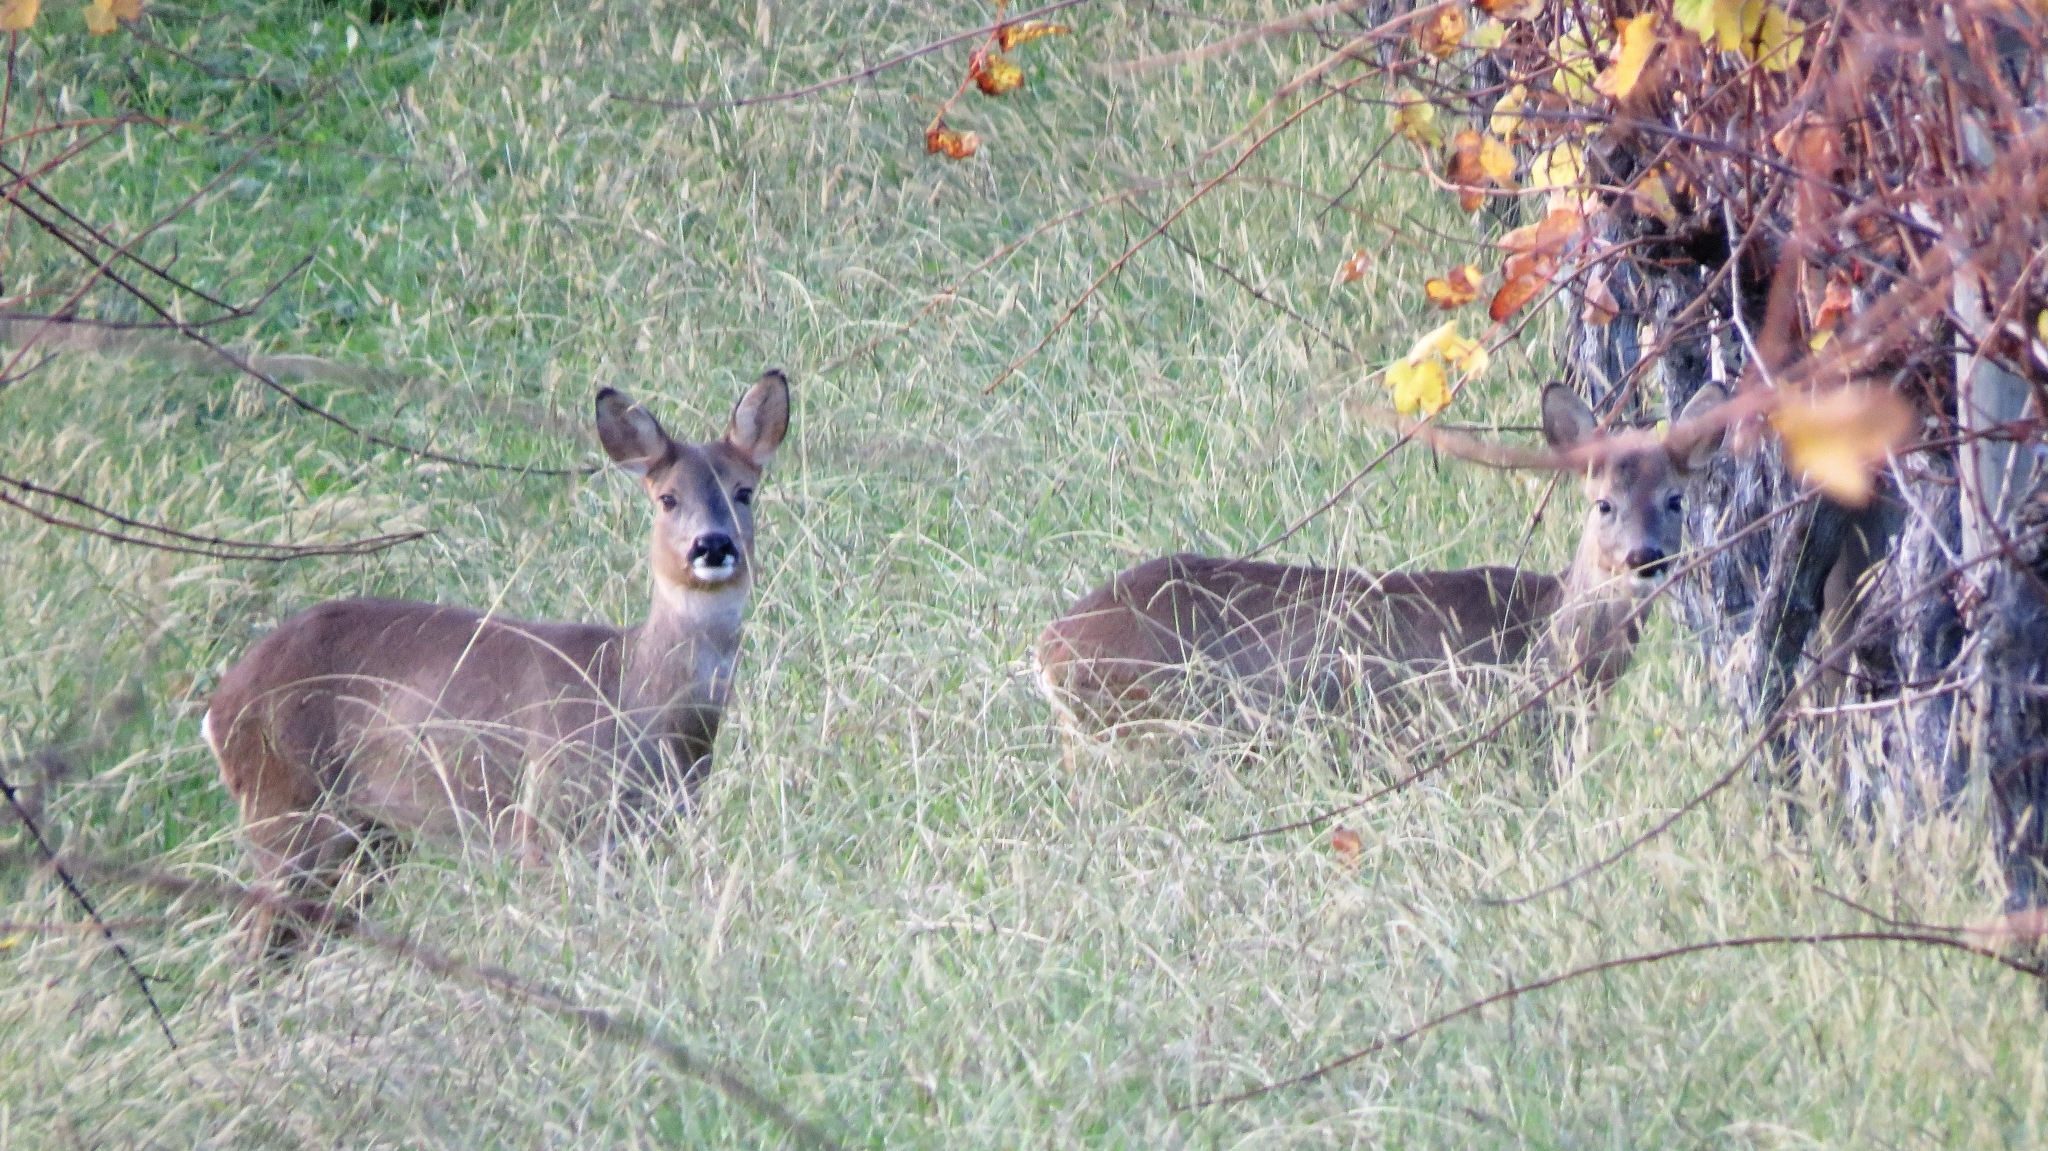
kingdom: Animalia
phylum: Chordata
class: Mammalia
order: Artiodactyla
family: Cervidae
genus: Capreolus
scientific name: Capreolus capreolus
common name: Western roe deer
